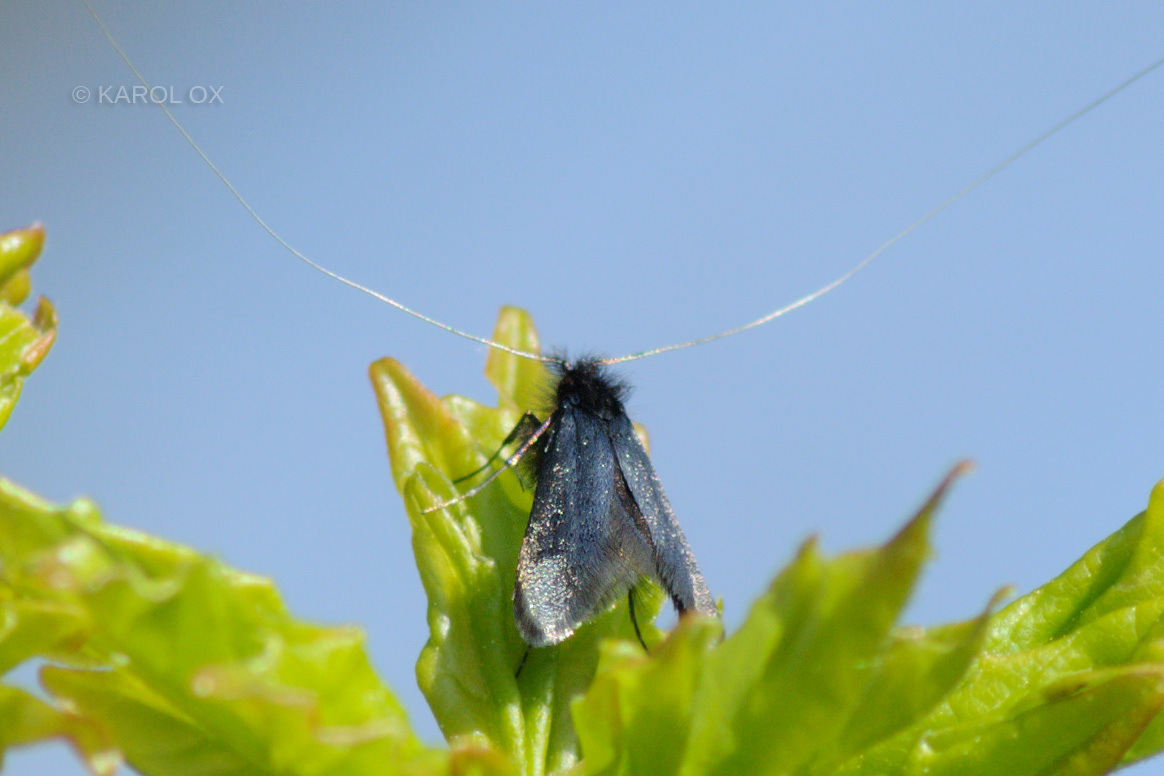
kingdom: Animalia
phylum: Arthropoda
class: Insecta
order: Lepidoptera
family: Adelidae
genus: Adela
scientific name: Adela viridella
